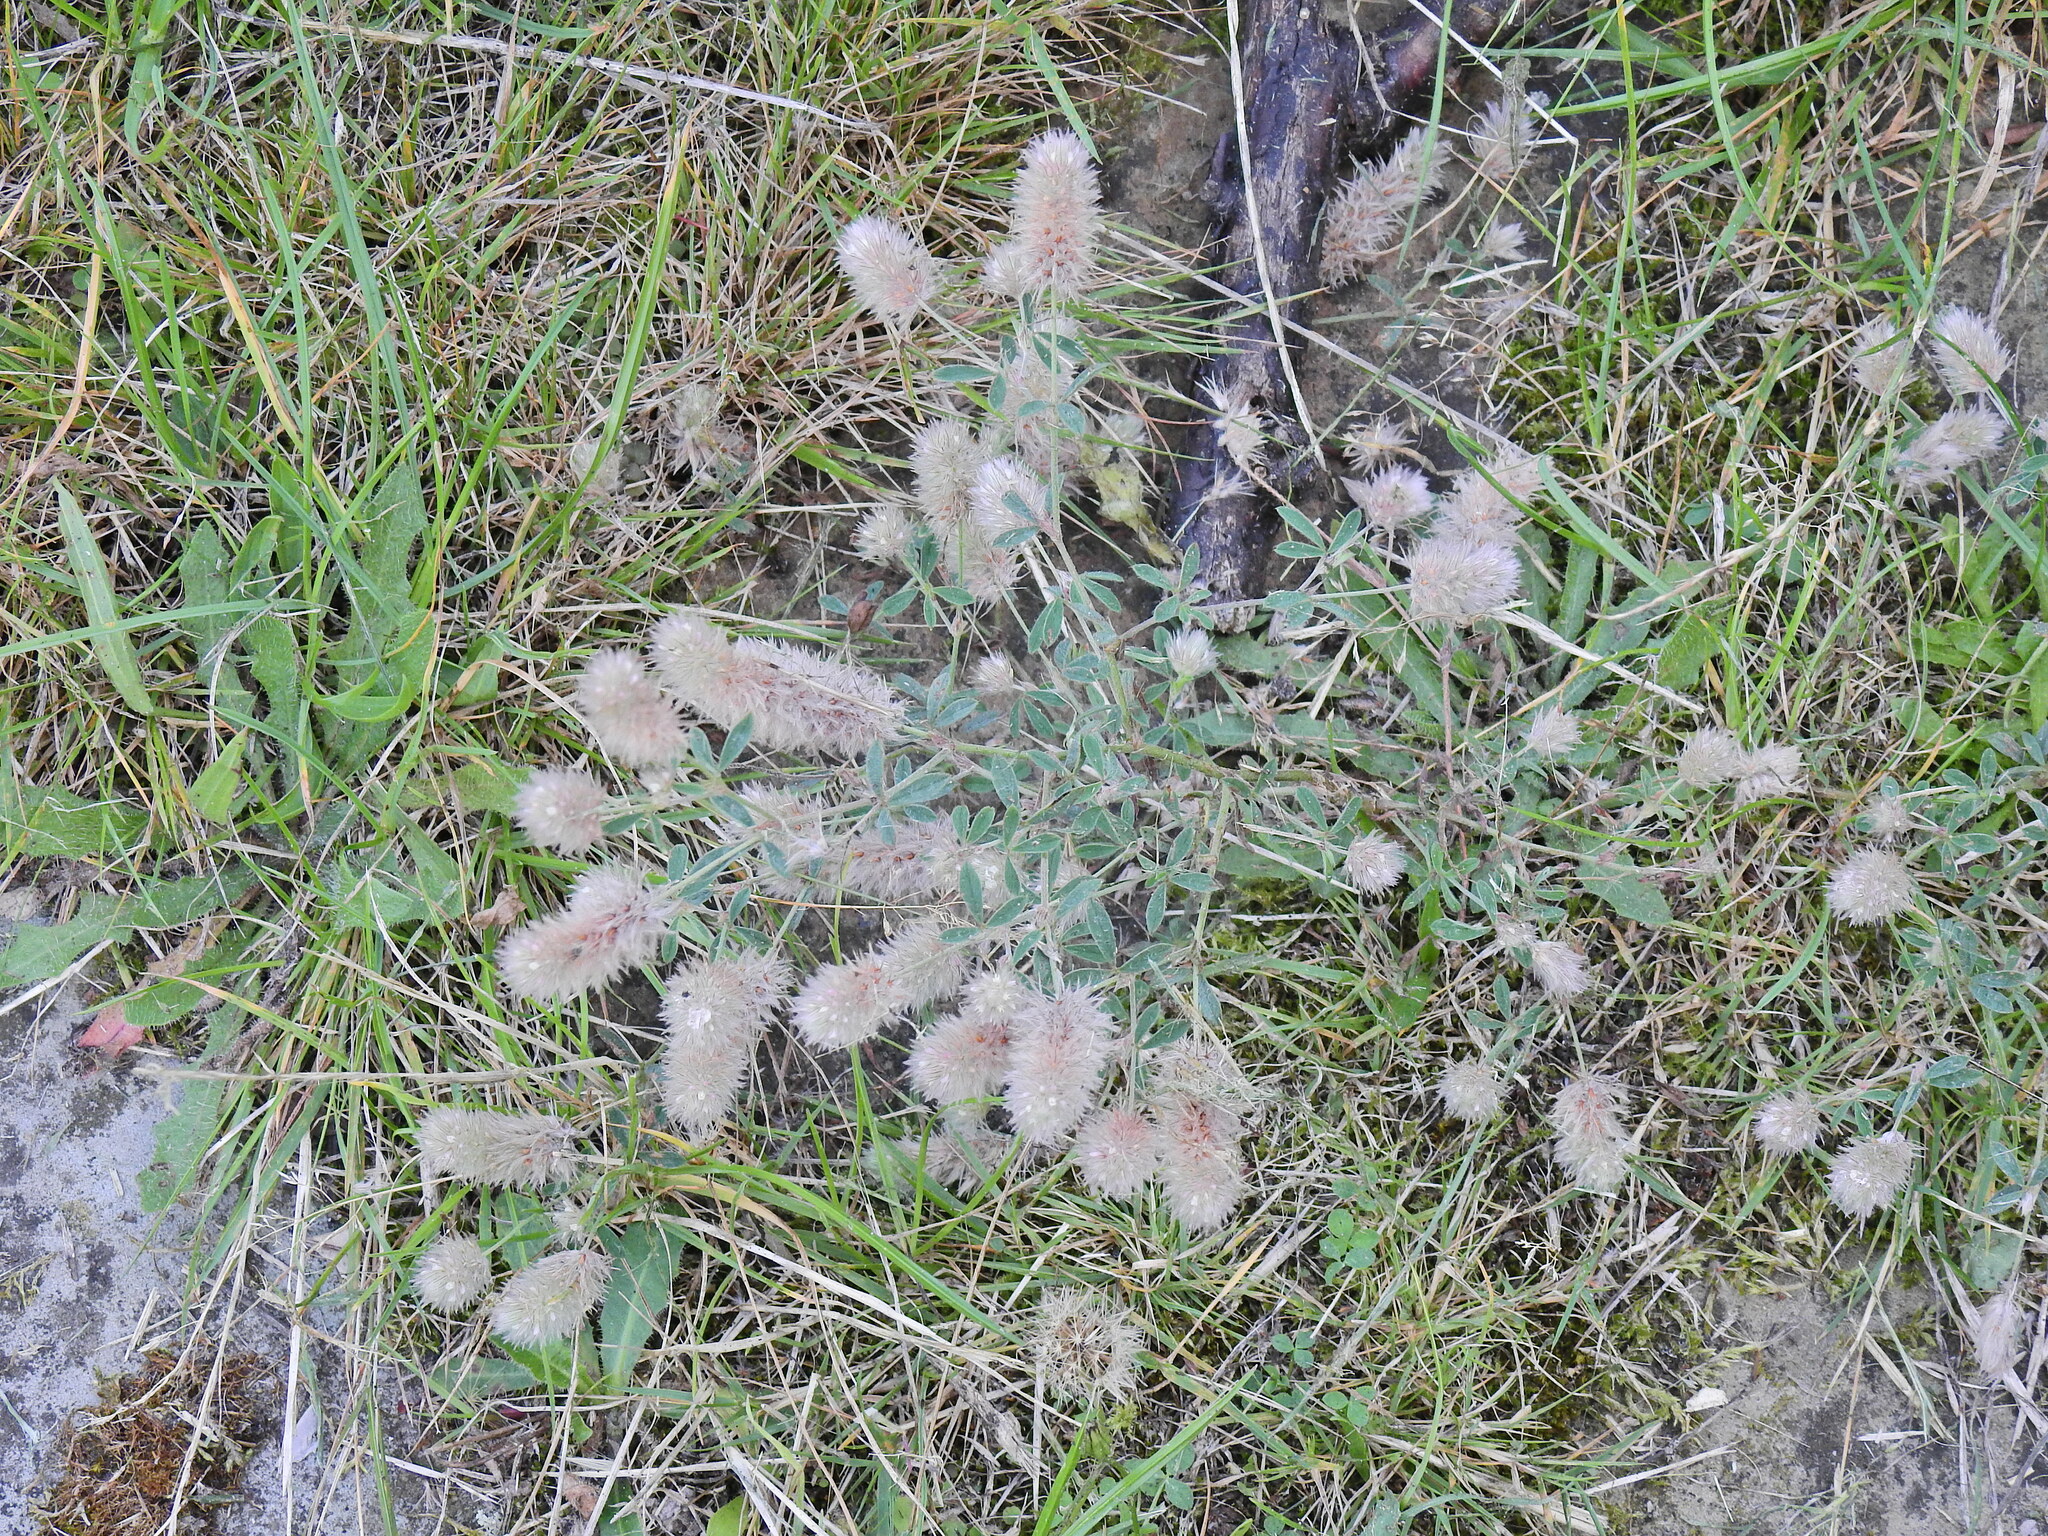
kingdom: Plantae
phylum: Tracheophyta
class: Magnoliopsida
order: Fabales
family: Fabaceae
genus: Trifolium
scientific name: Trifolium arvense
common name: Hare's-foot clover
